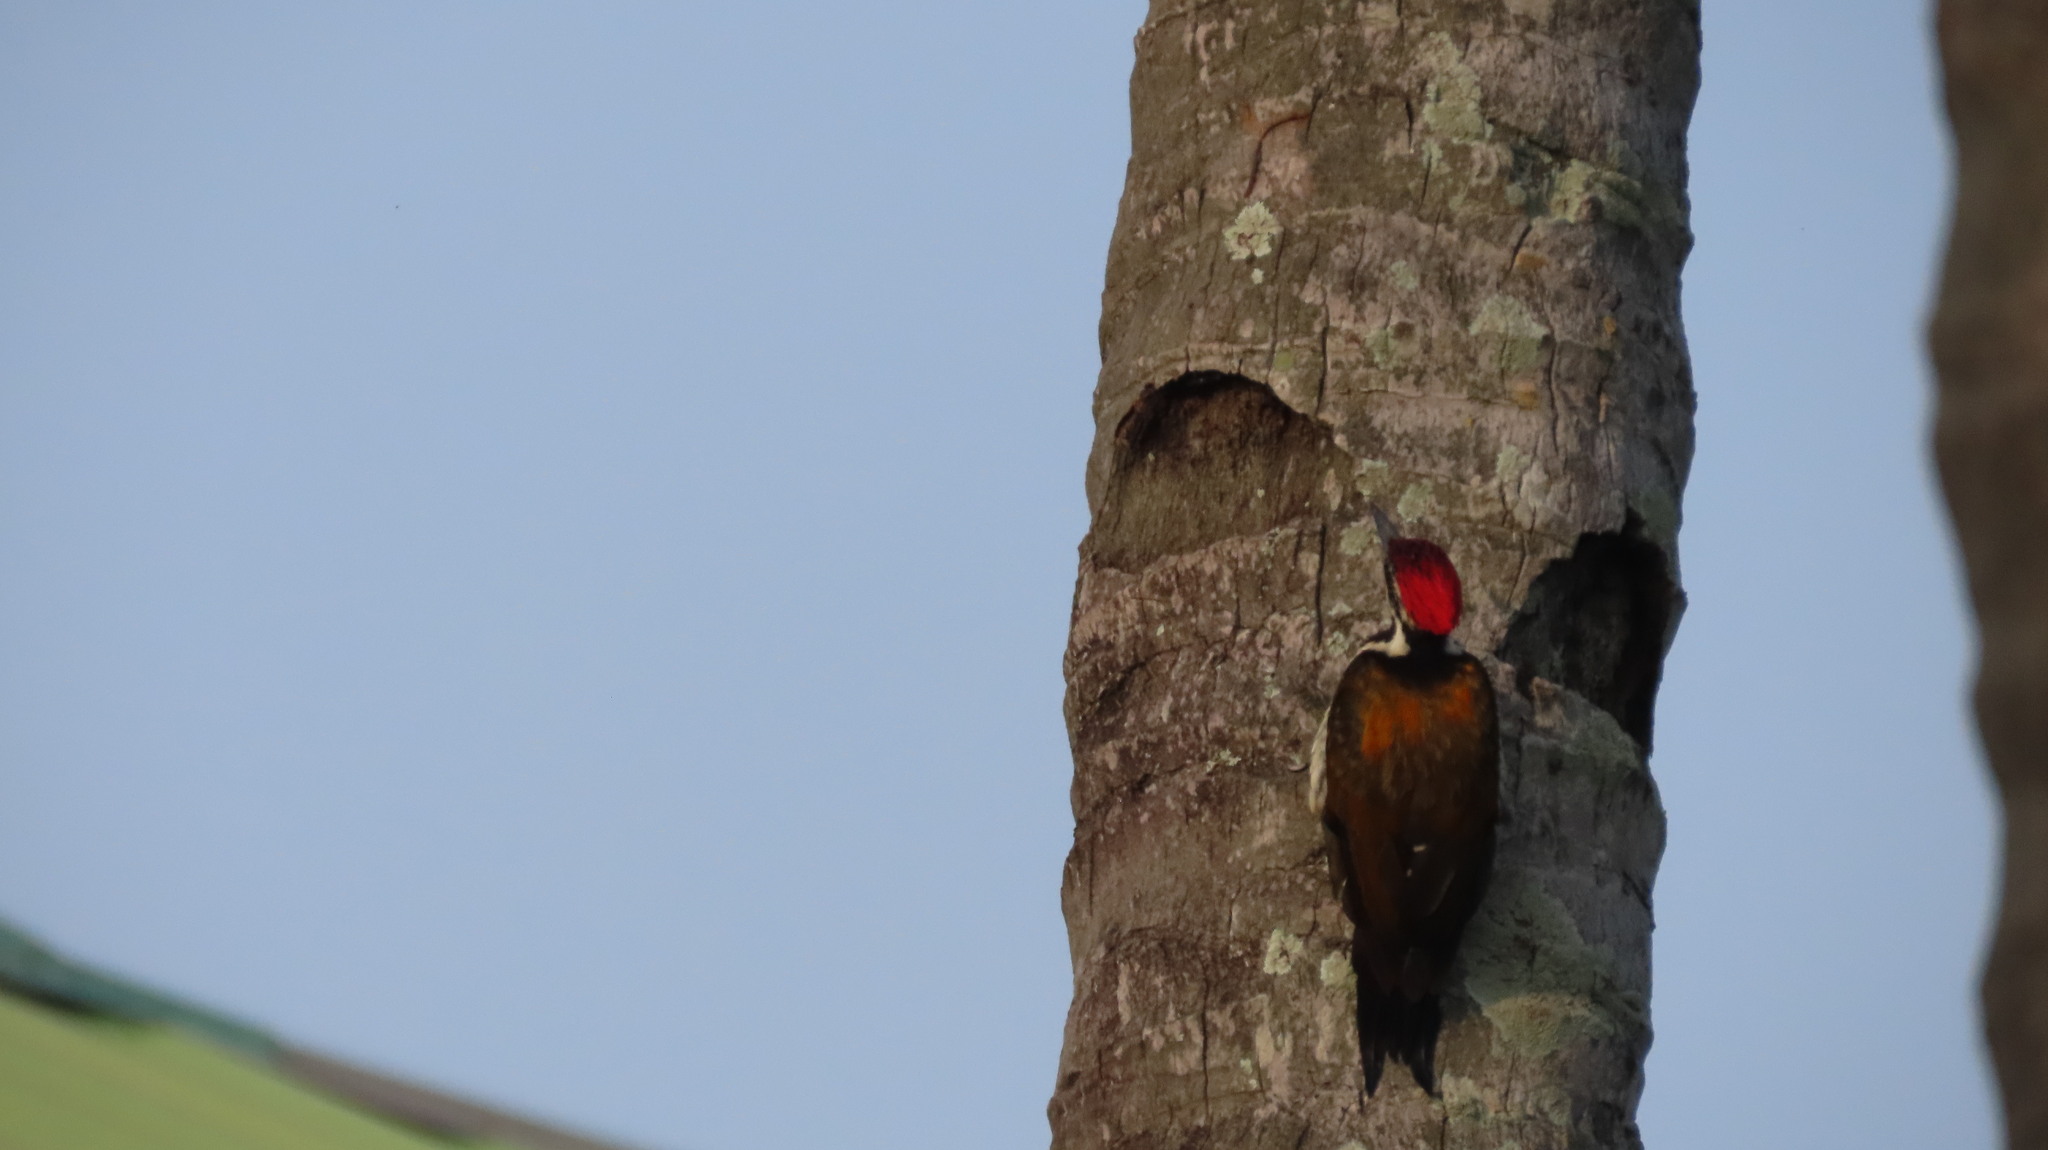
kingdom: Animalia
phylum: Chordata
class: Aves
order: Piciformes
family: Picidae
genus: Dinopium
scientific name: Dinopium benghalense
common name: Black-rumped flameback
